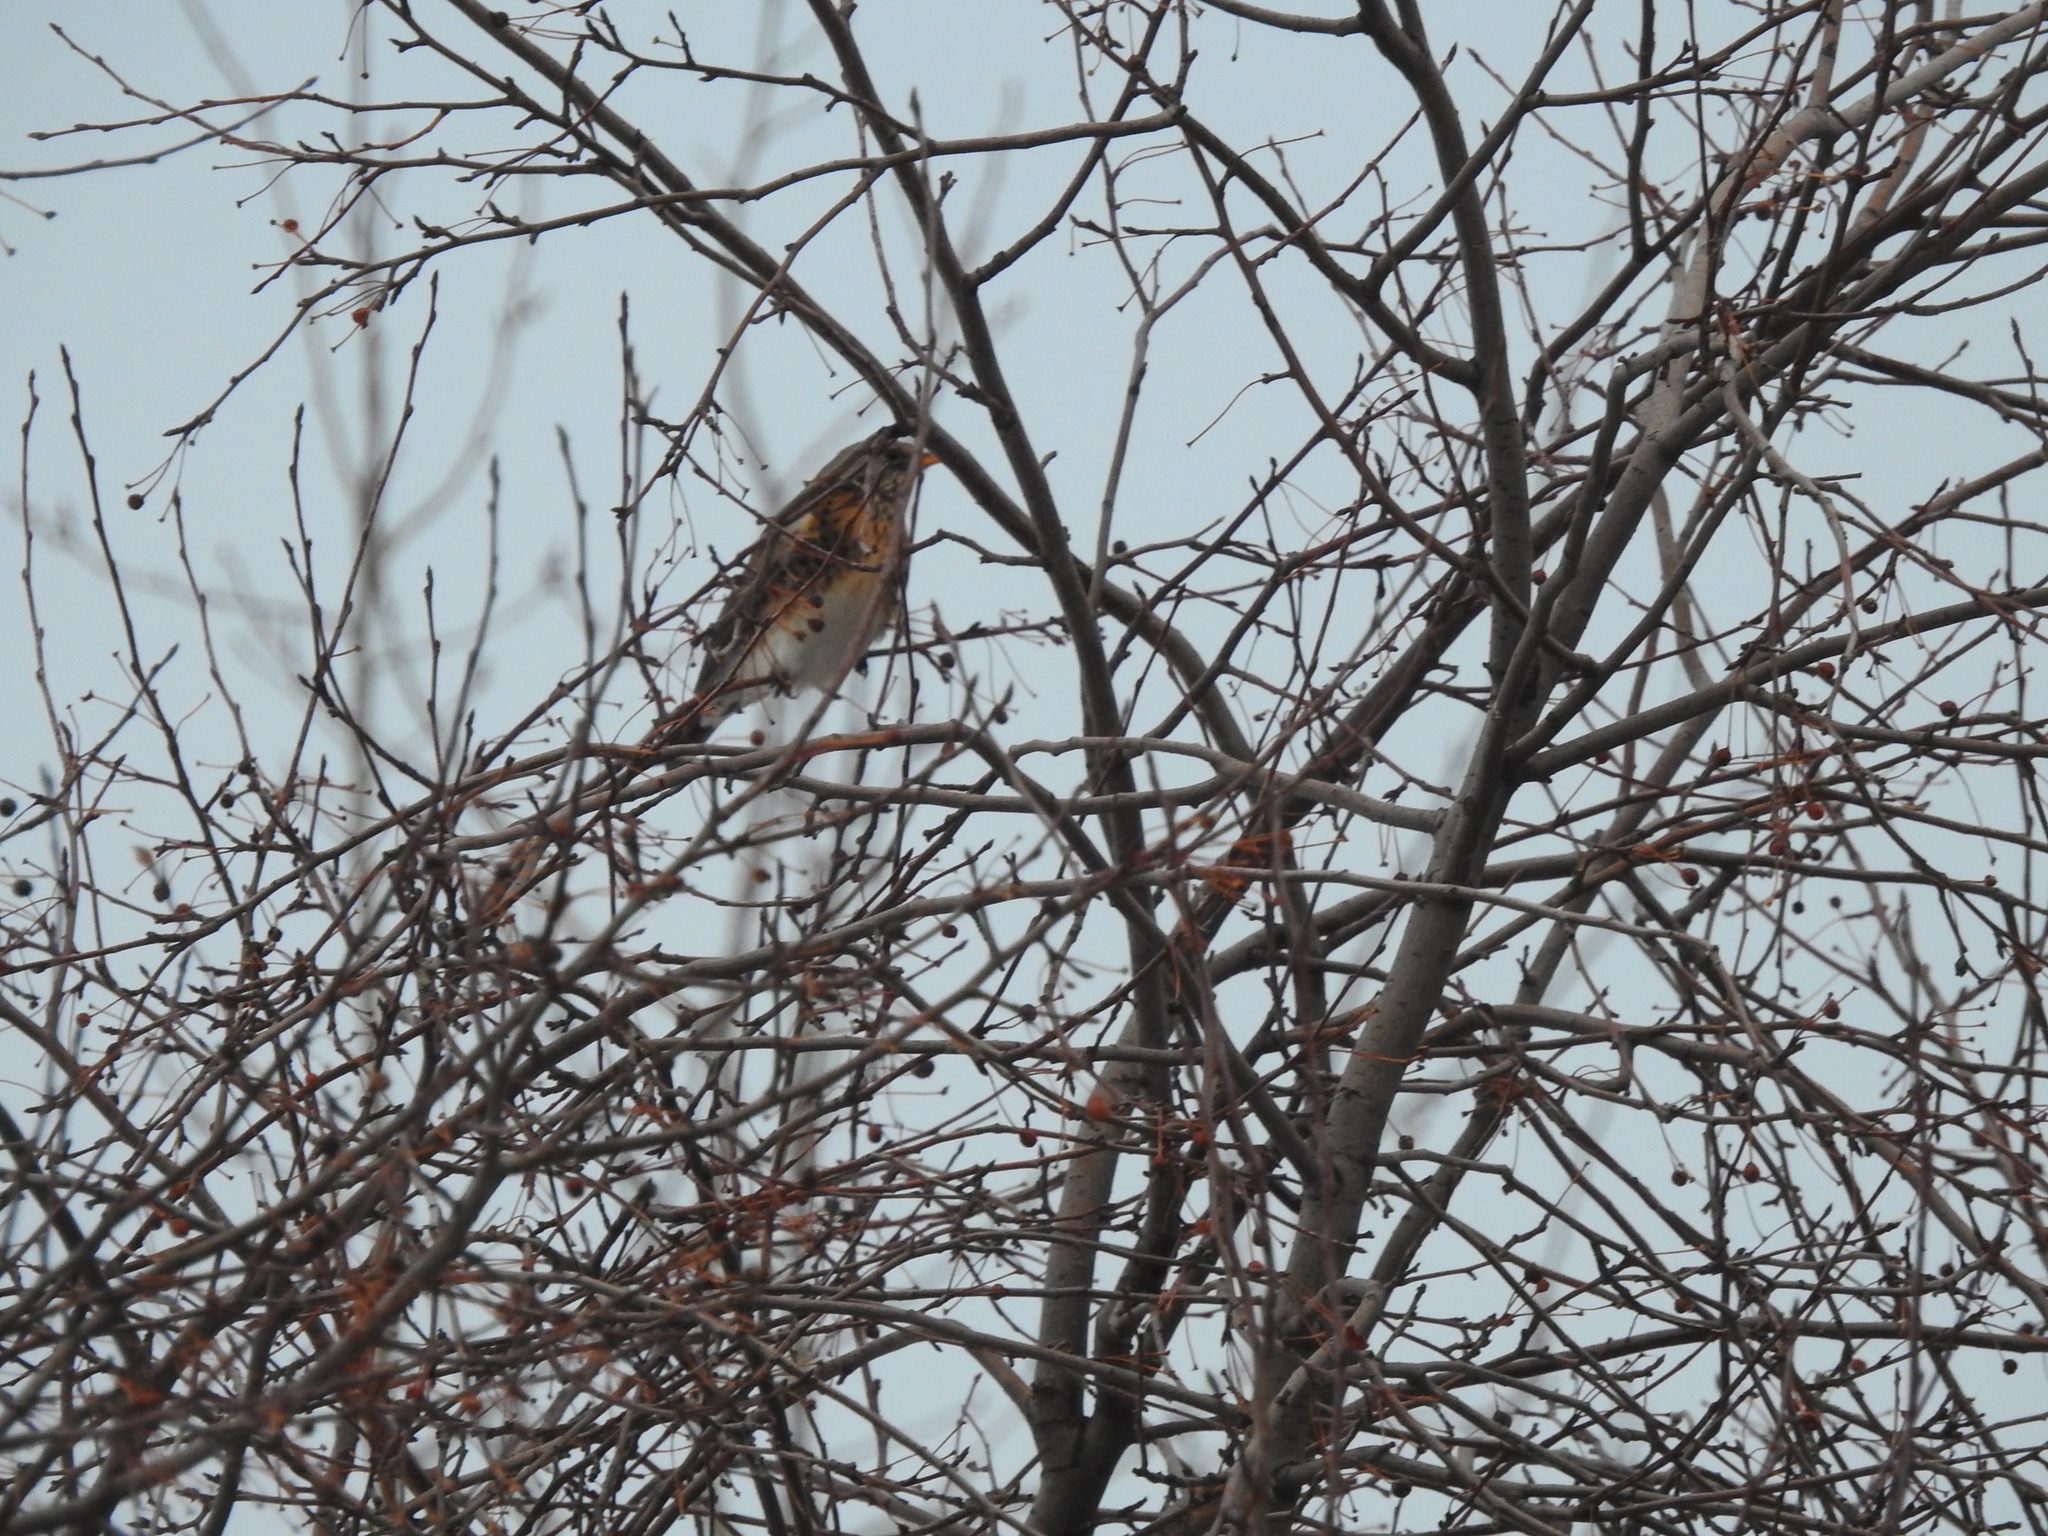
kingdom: Animalia
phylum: Chordata
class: Aves
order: Passeriformes
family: Turdidae
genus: Turdus
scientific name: Turdus pilaris
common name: Fieldfare
